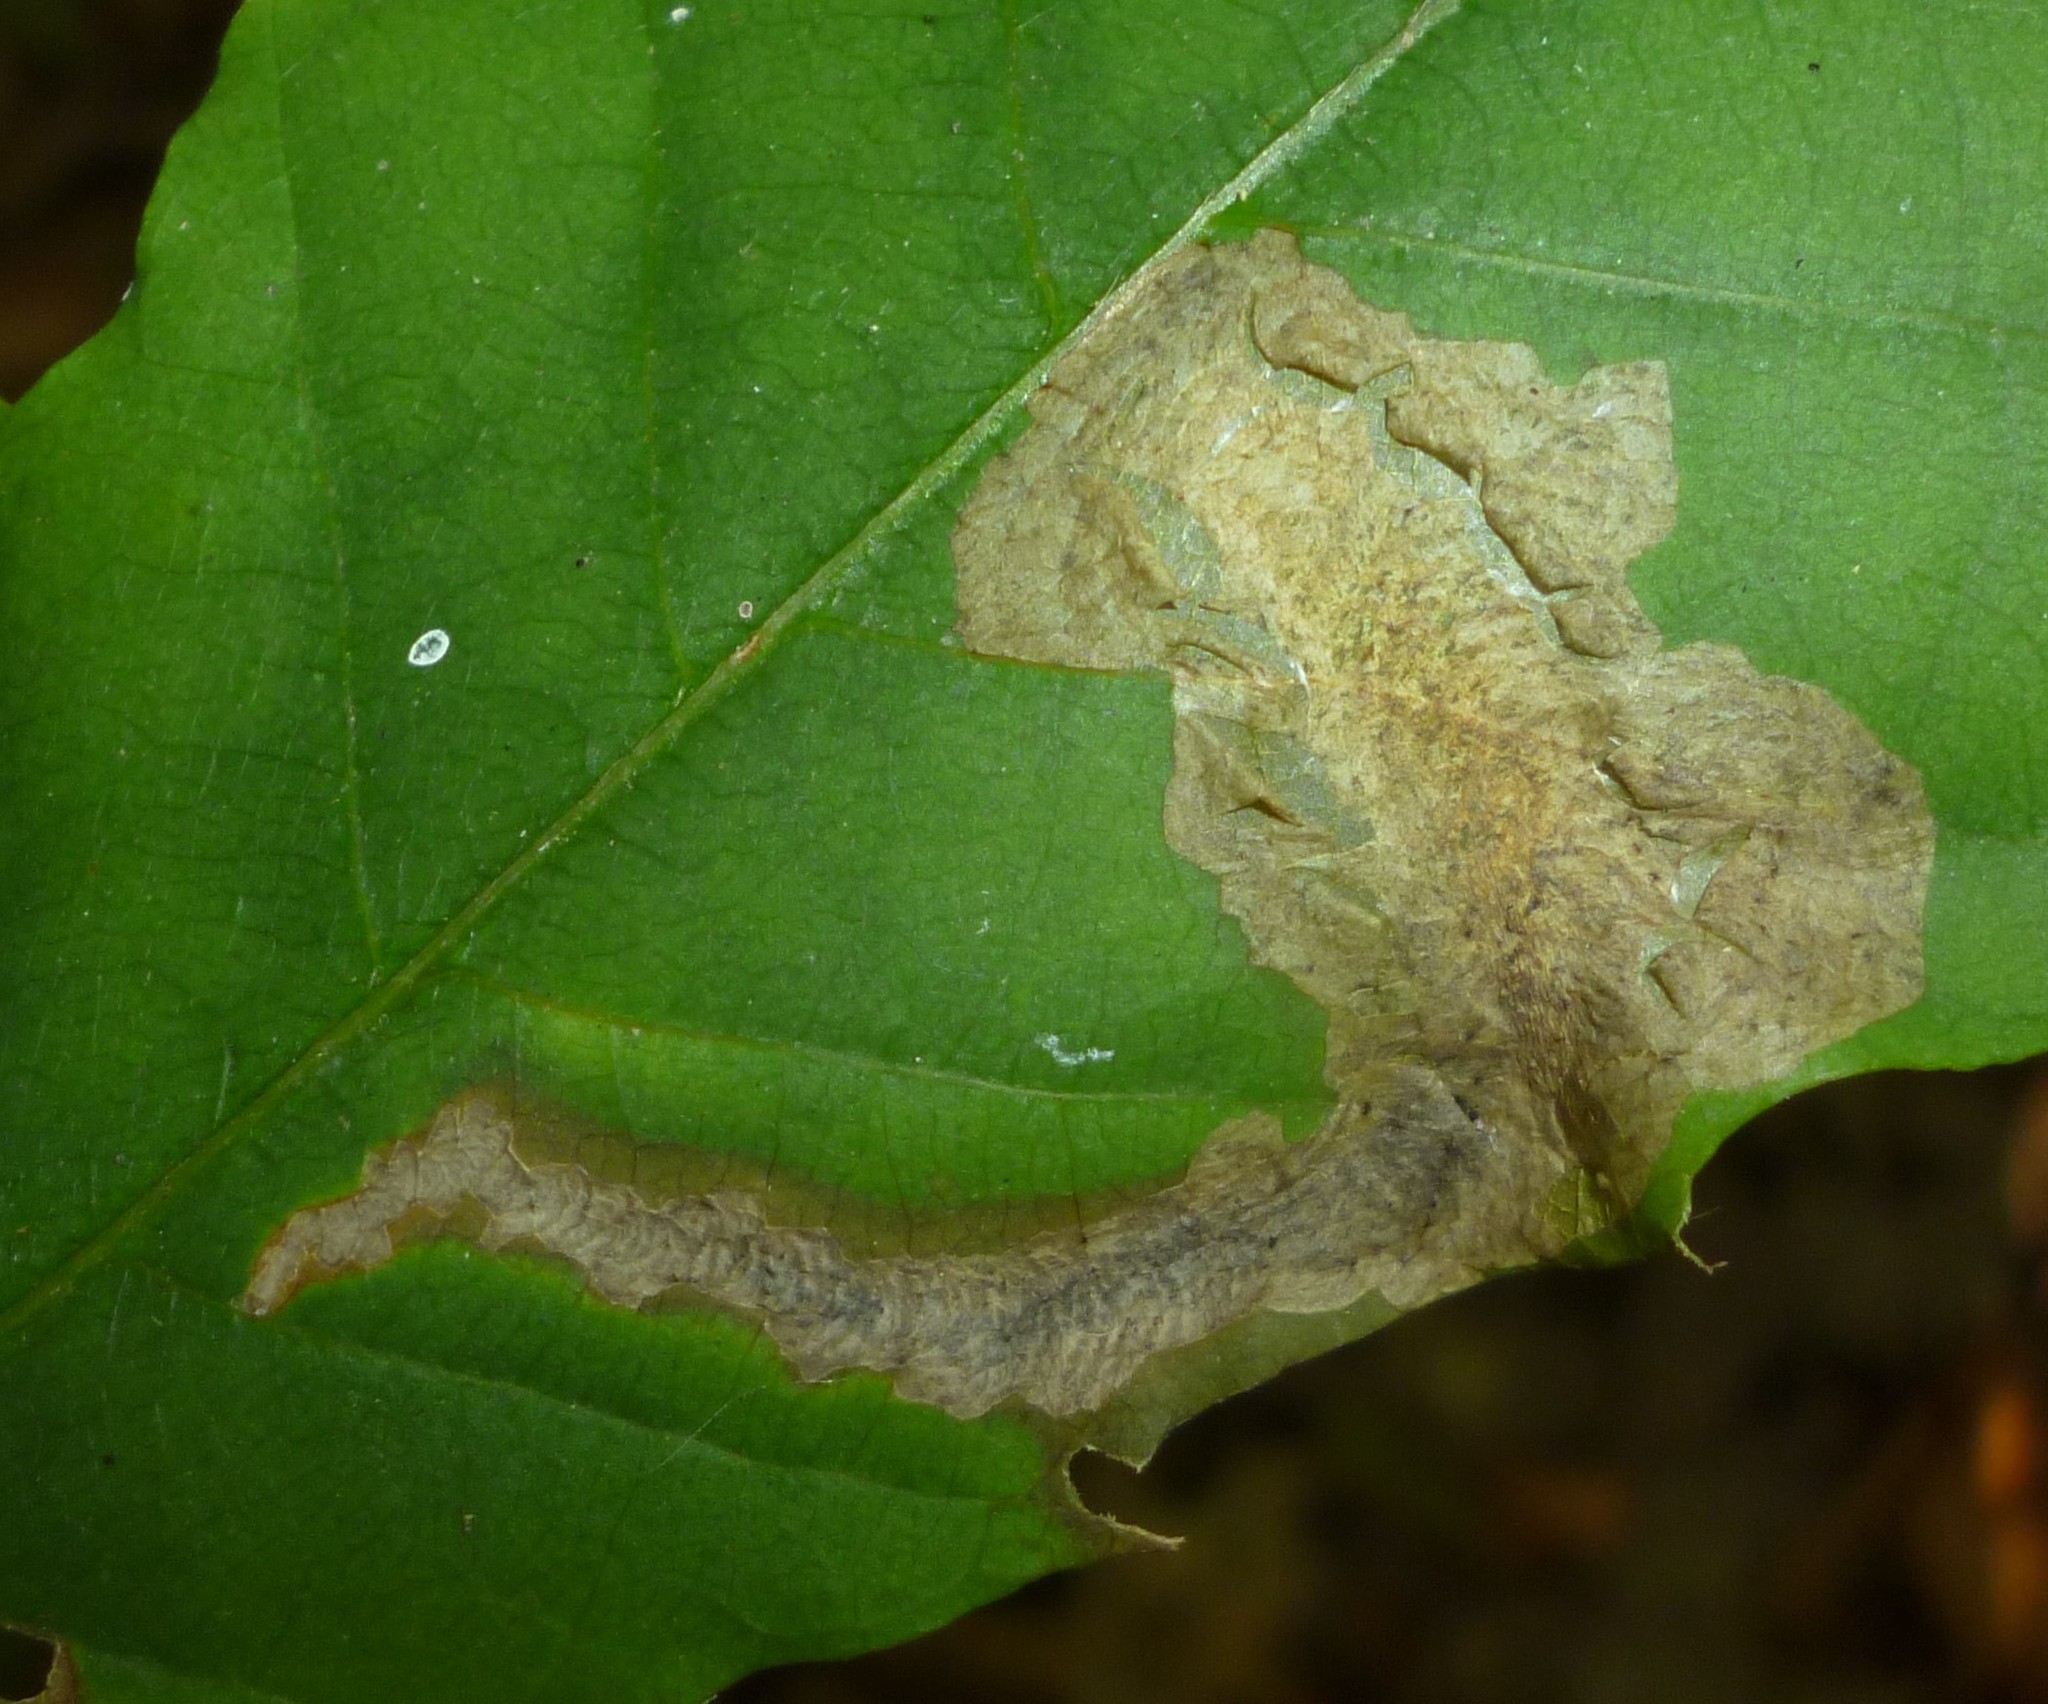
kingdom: Animalia
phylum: Arthropoda
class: Insecta
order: Lepidoptera
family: Tischeriidae
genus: Coptotriche
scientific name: Coptotriche castaneaeella
